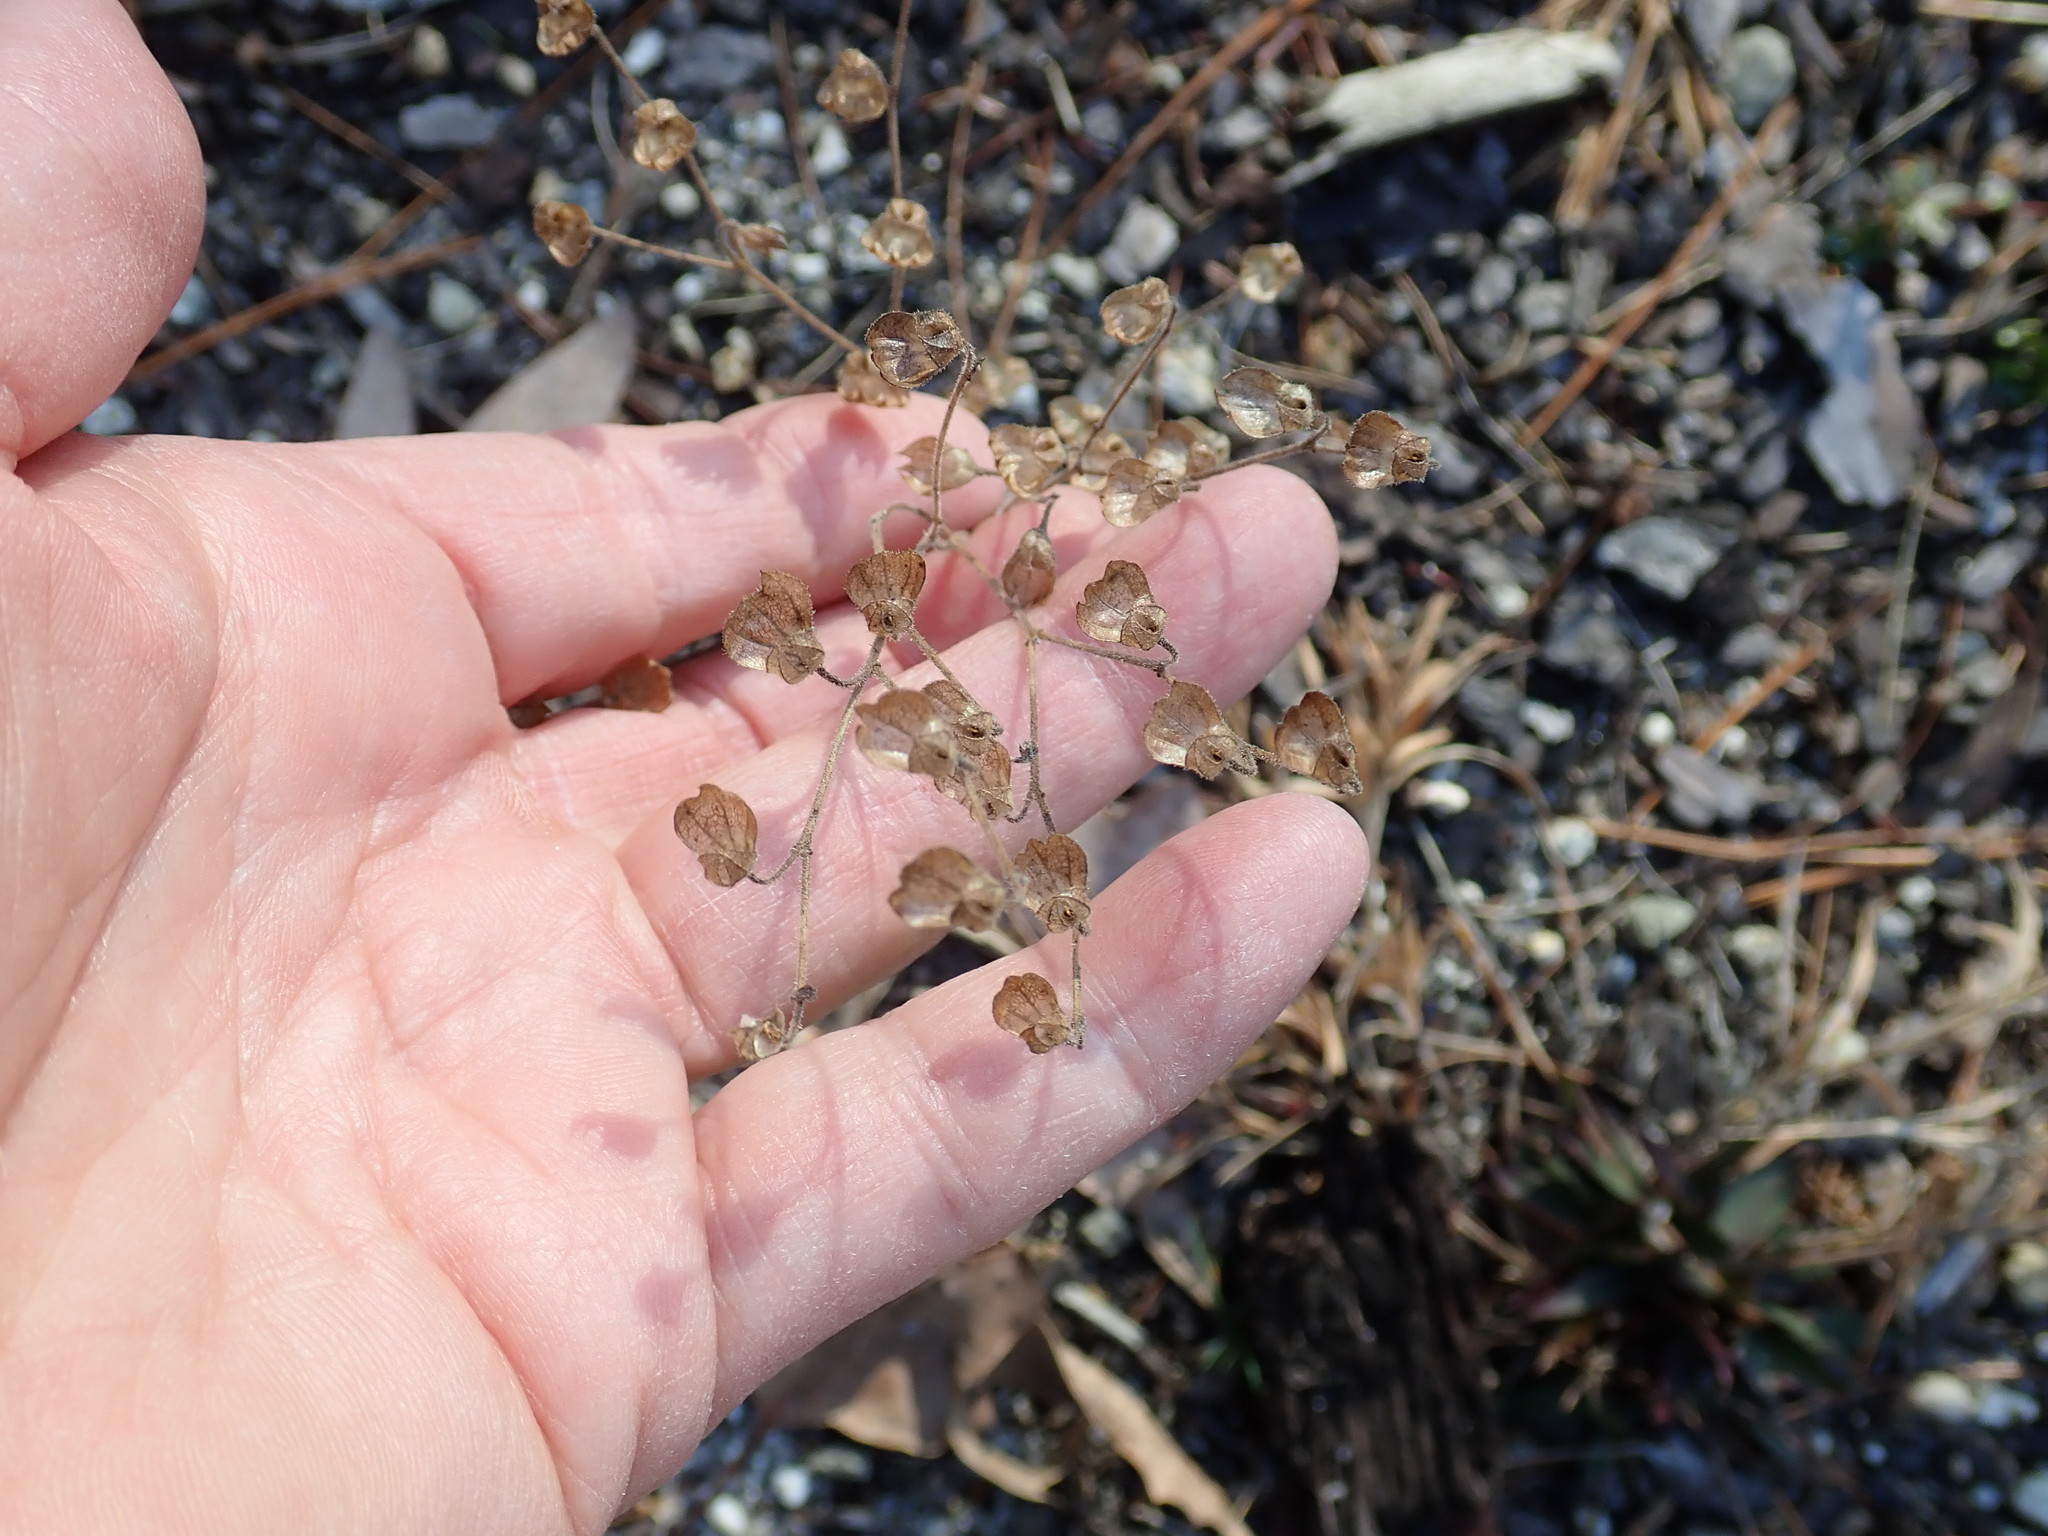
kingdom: Plantae
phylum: Tracheophyta
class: Magnoliopsida
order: Lamiales
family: Lamiaceae
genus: Trichostema
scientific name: Trichostema dichotomum
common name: Bastard pennyroyal
